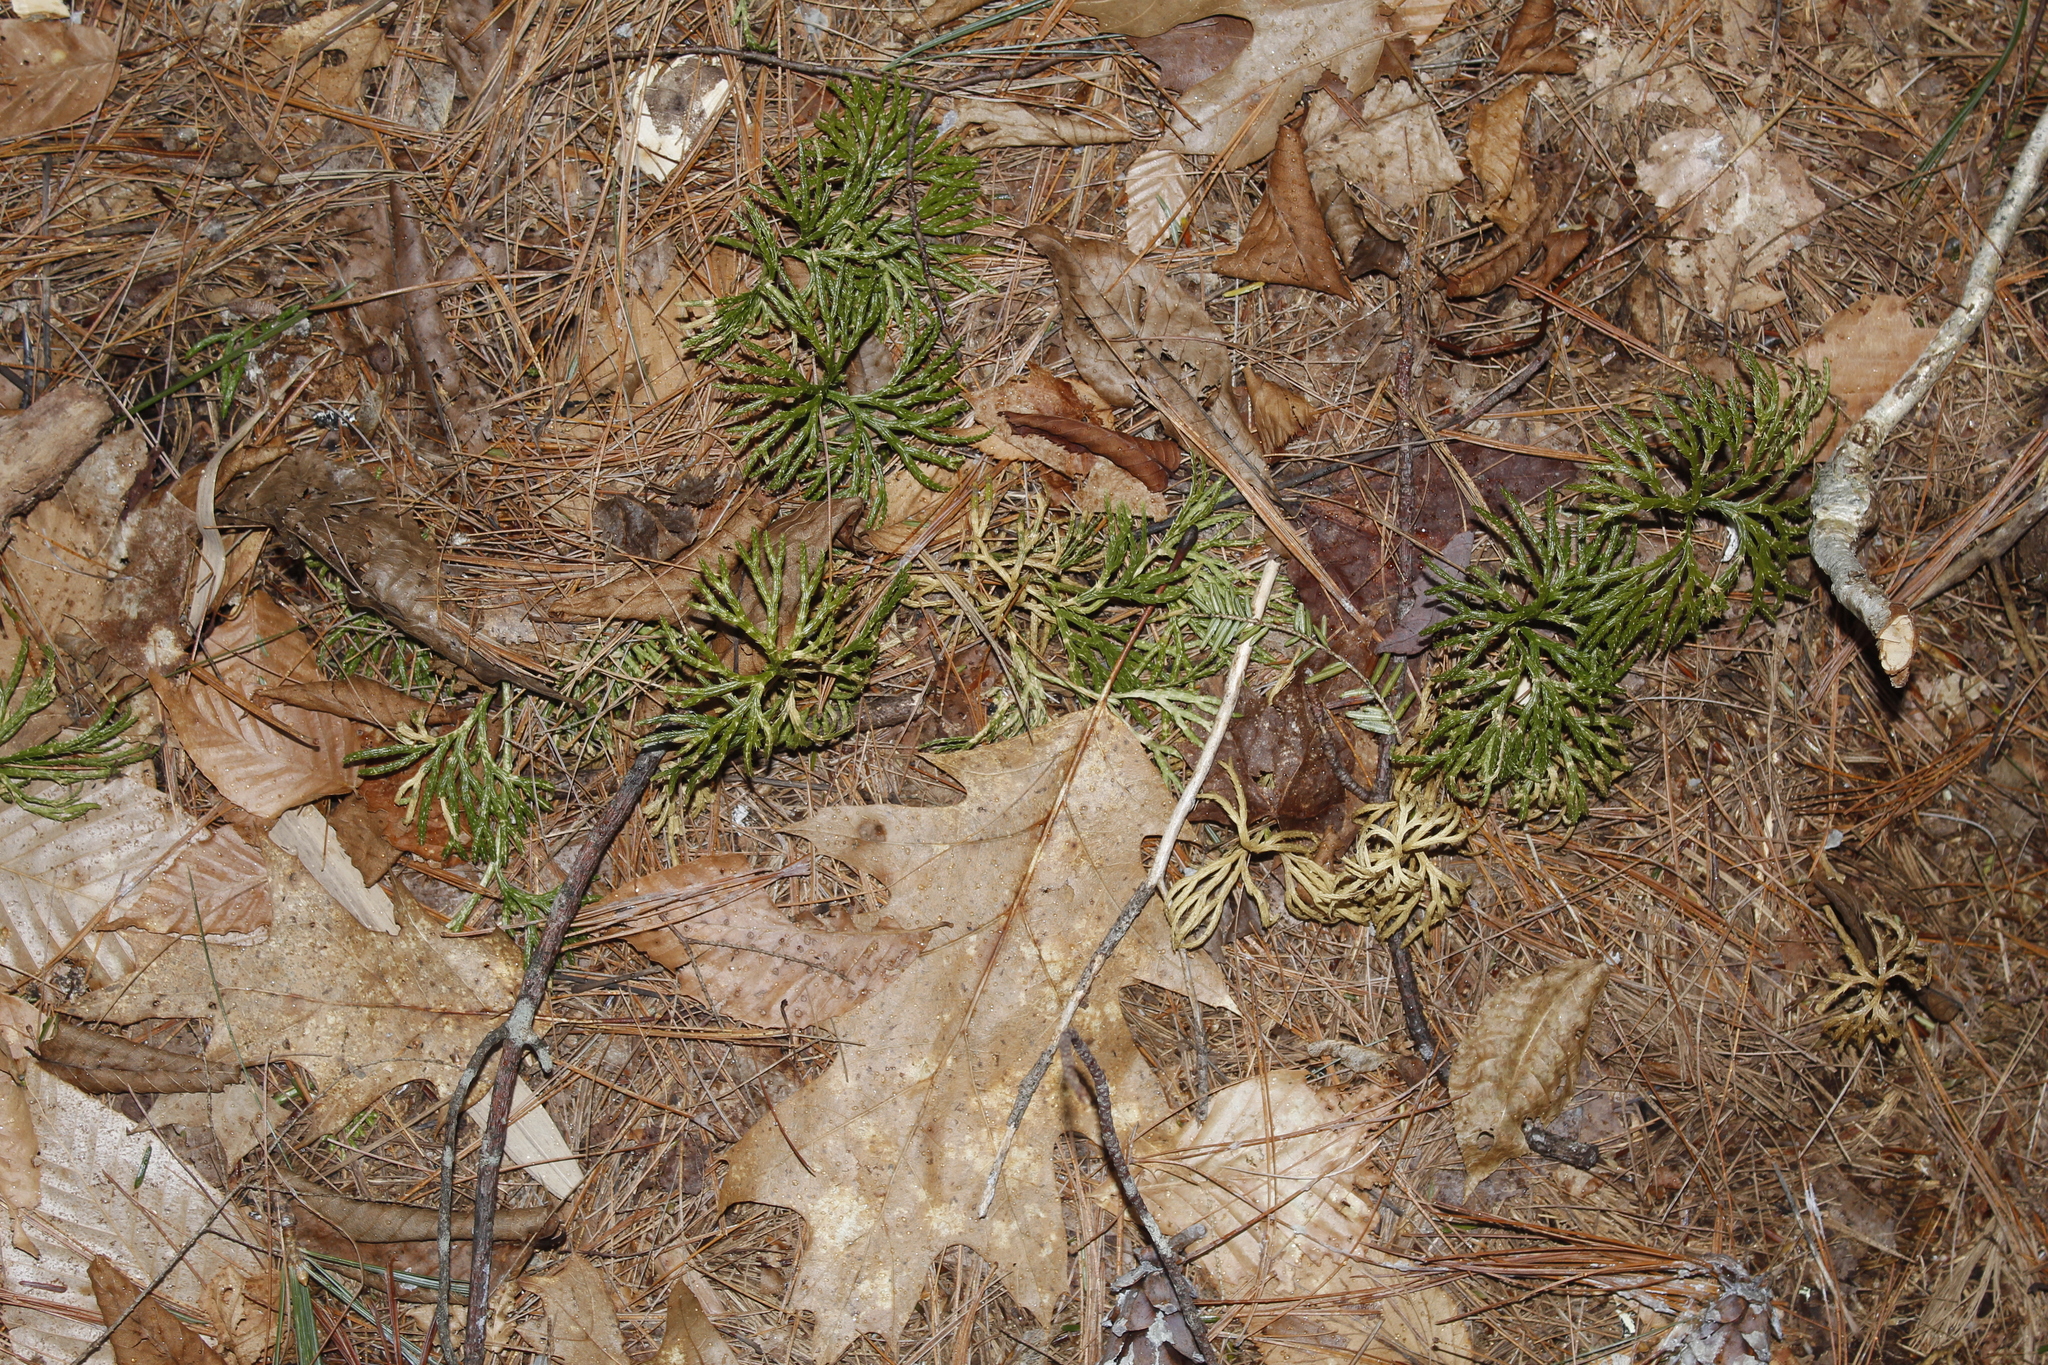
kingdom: Plantae
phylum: Tracheophyta
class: Lycopodiopsida
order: Lycopodiales
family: Lycopodiaceae
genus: Diphasiastrum
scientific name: Diphasiastrum digitatum
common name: Southern running-pine
